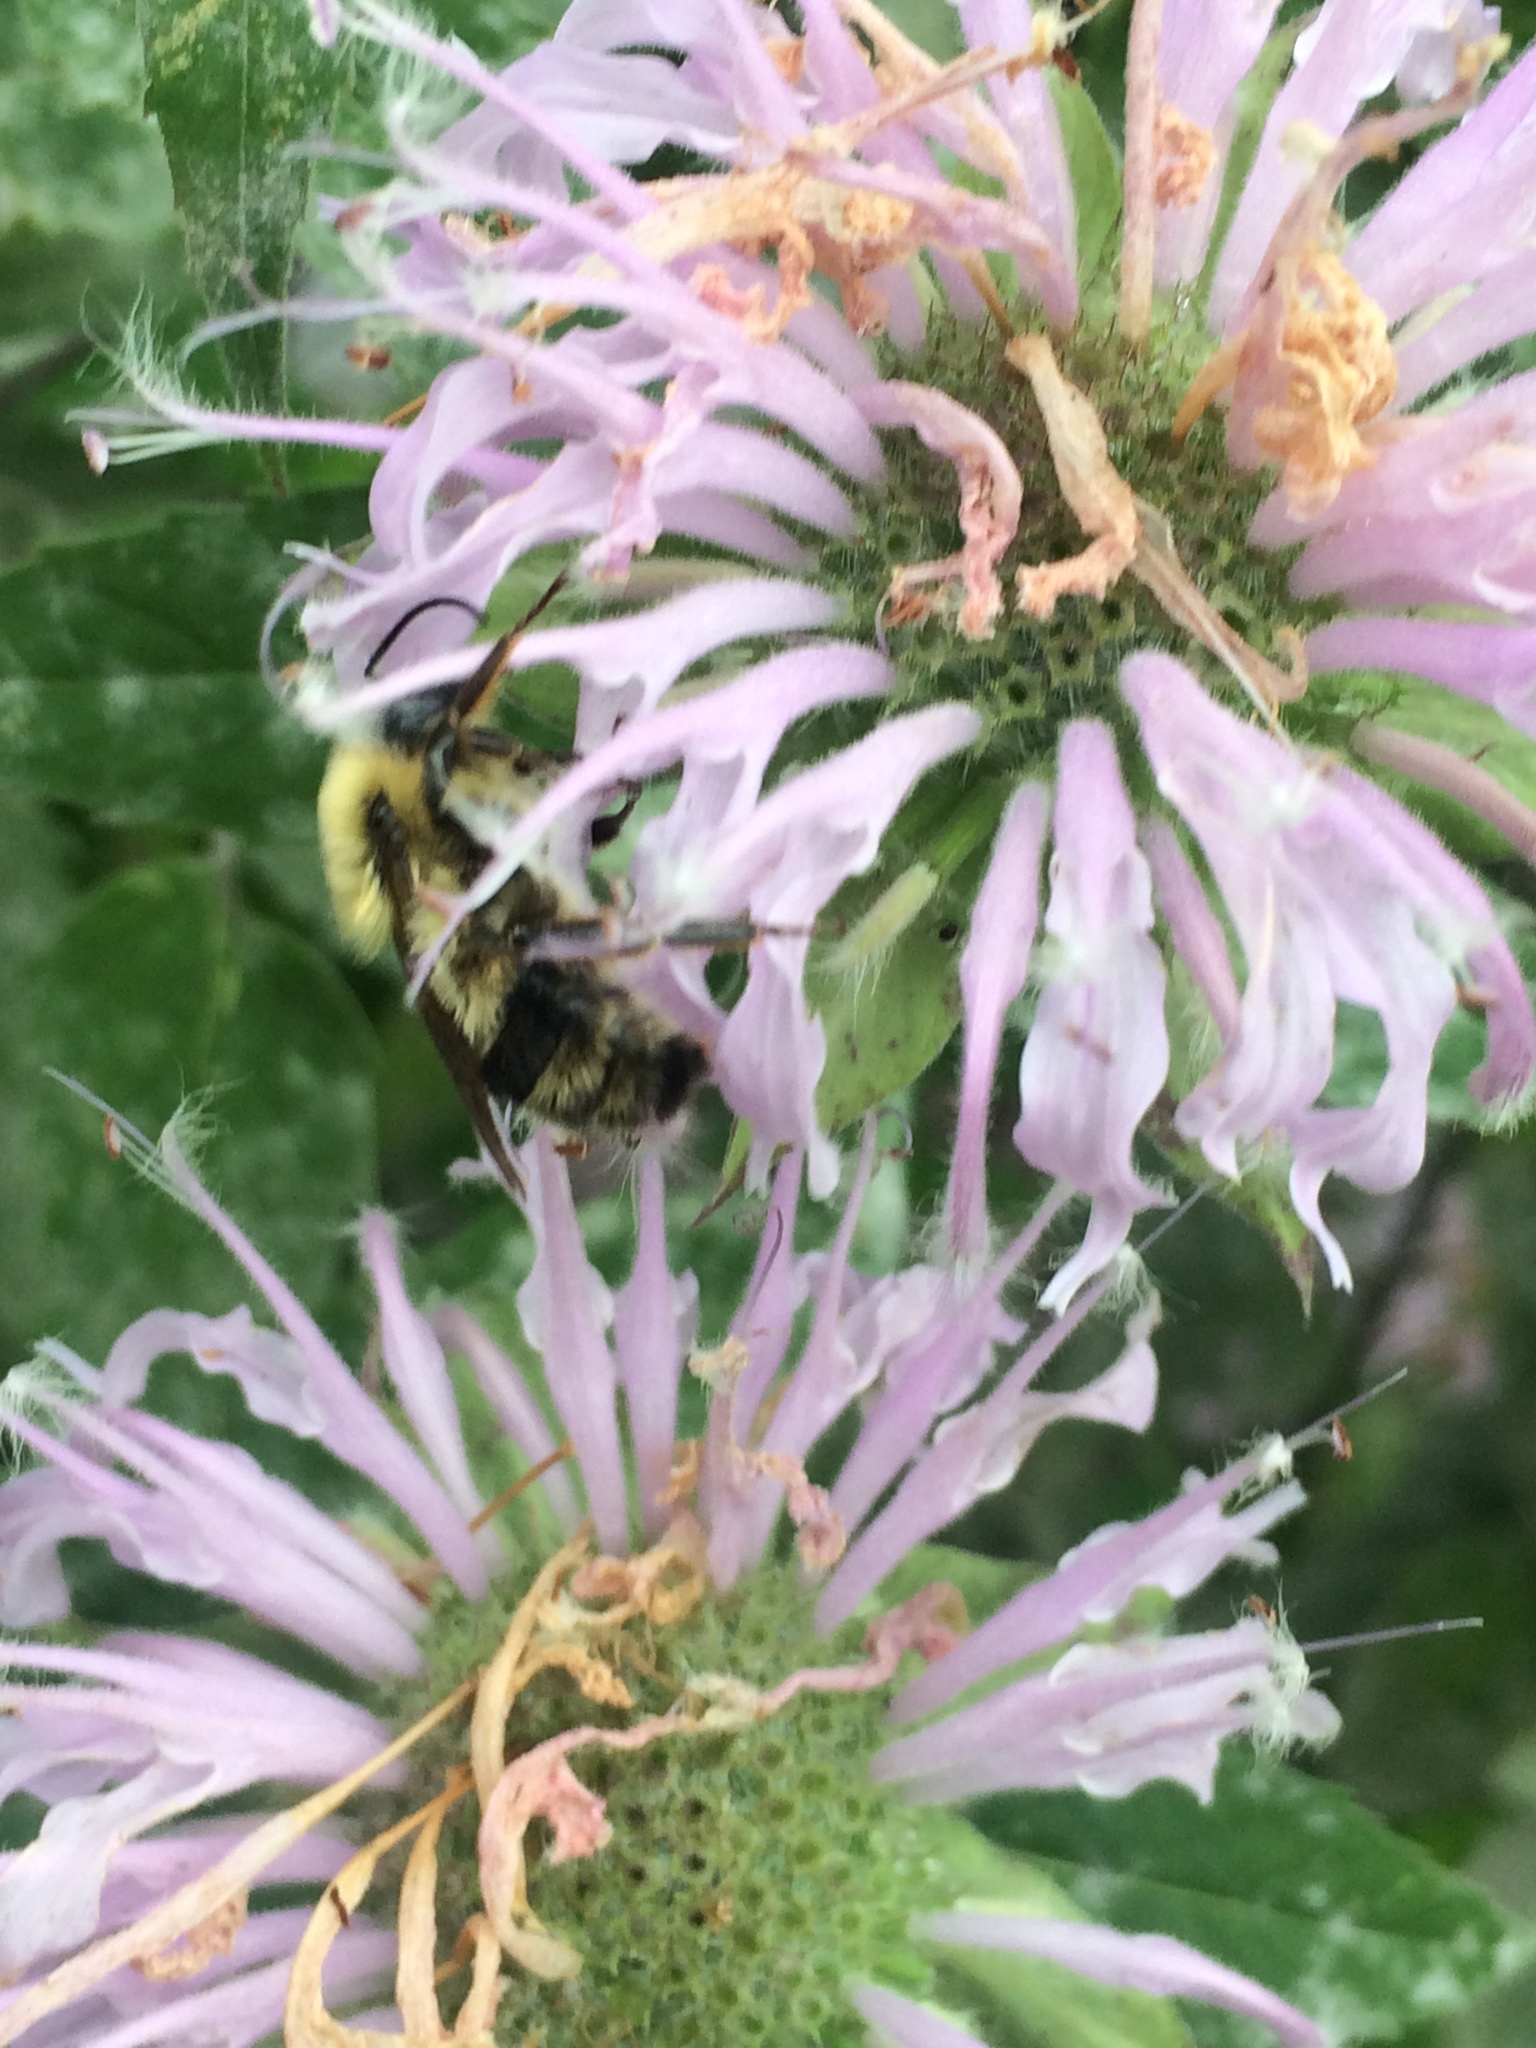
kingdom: Animalia
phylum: Arthropoda
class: Insecta
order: Hymenoptera
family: Apidae
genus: Bombus
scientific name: Bombus bimaculatus
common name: Two-spotted bumble bee
